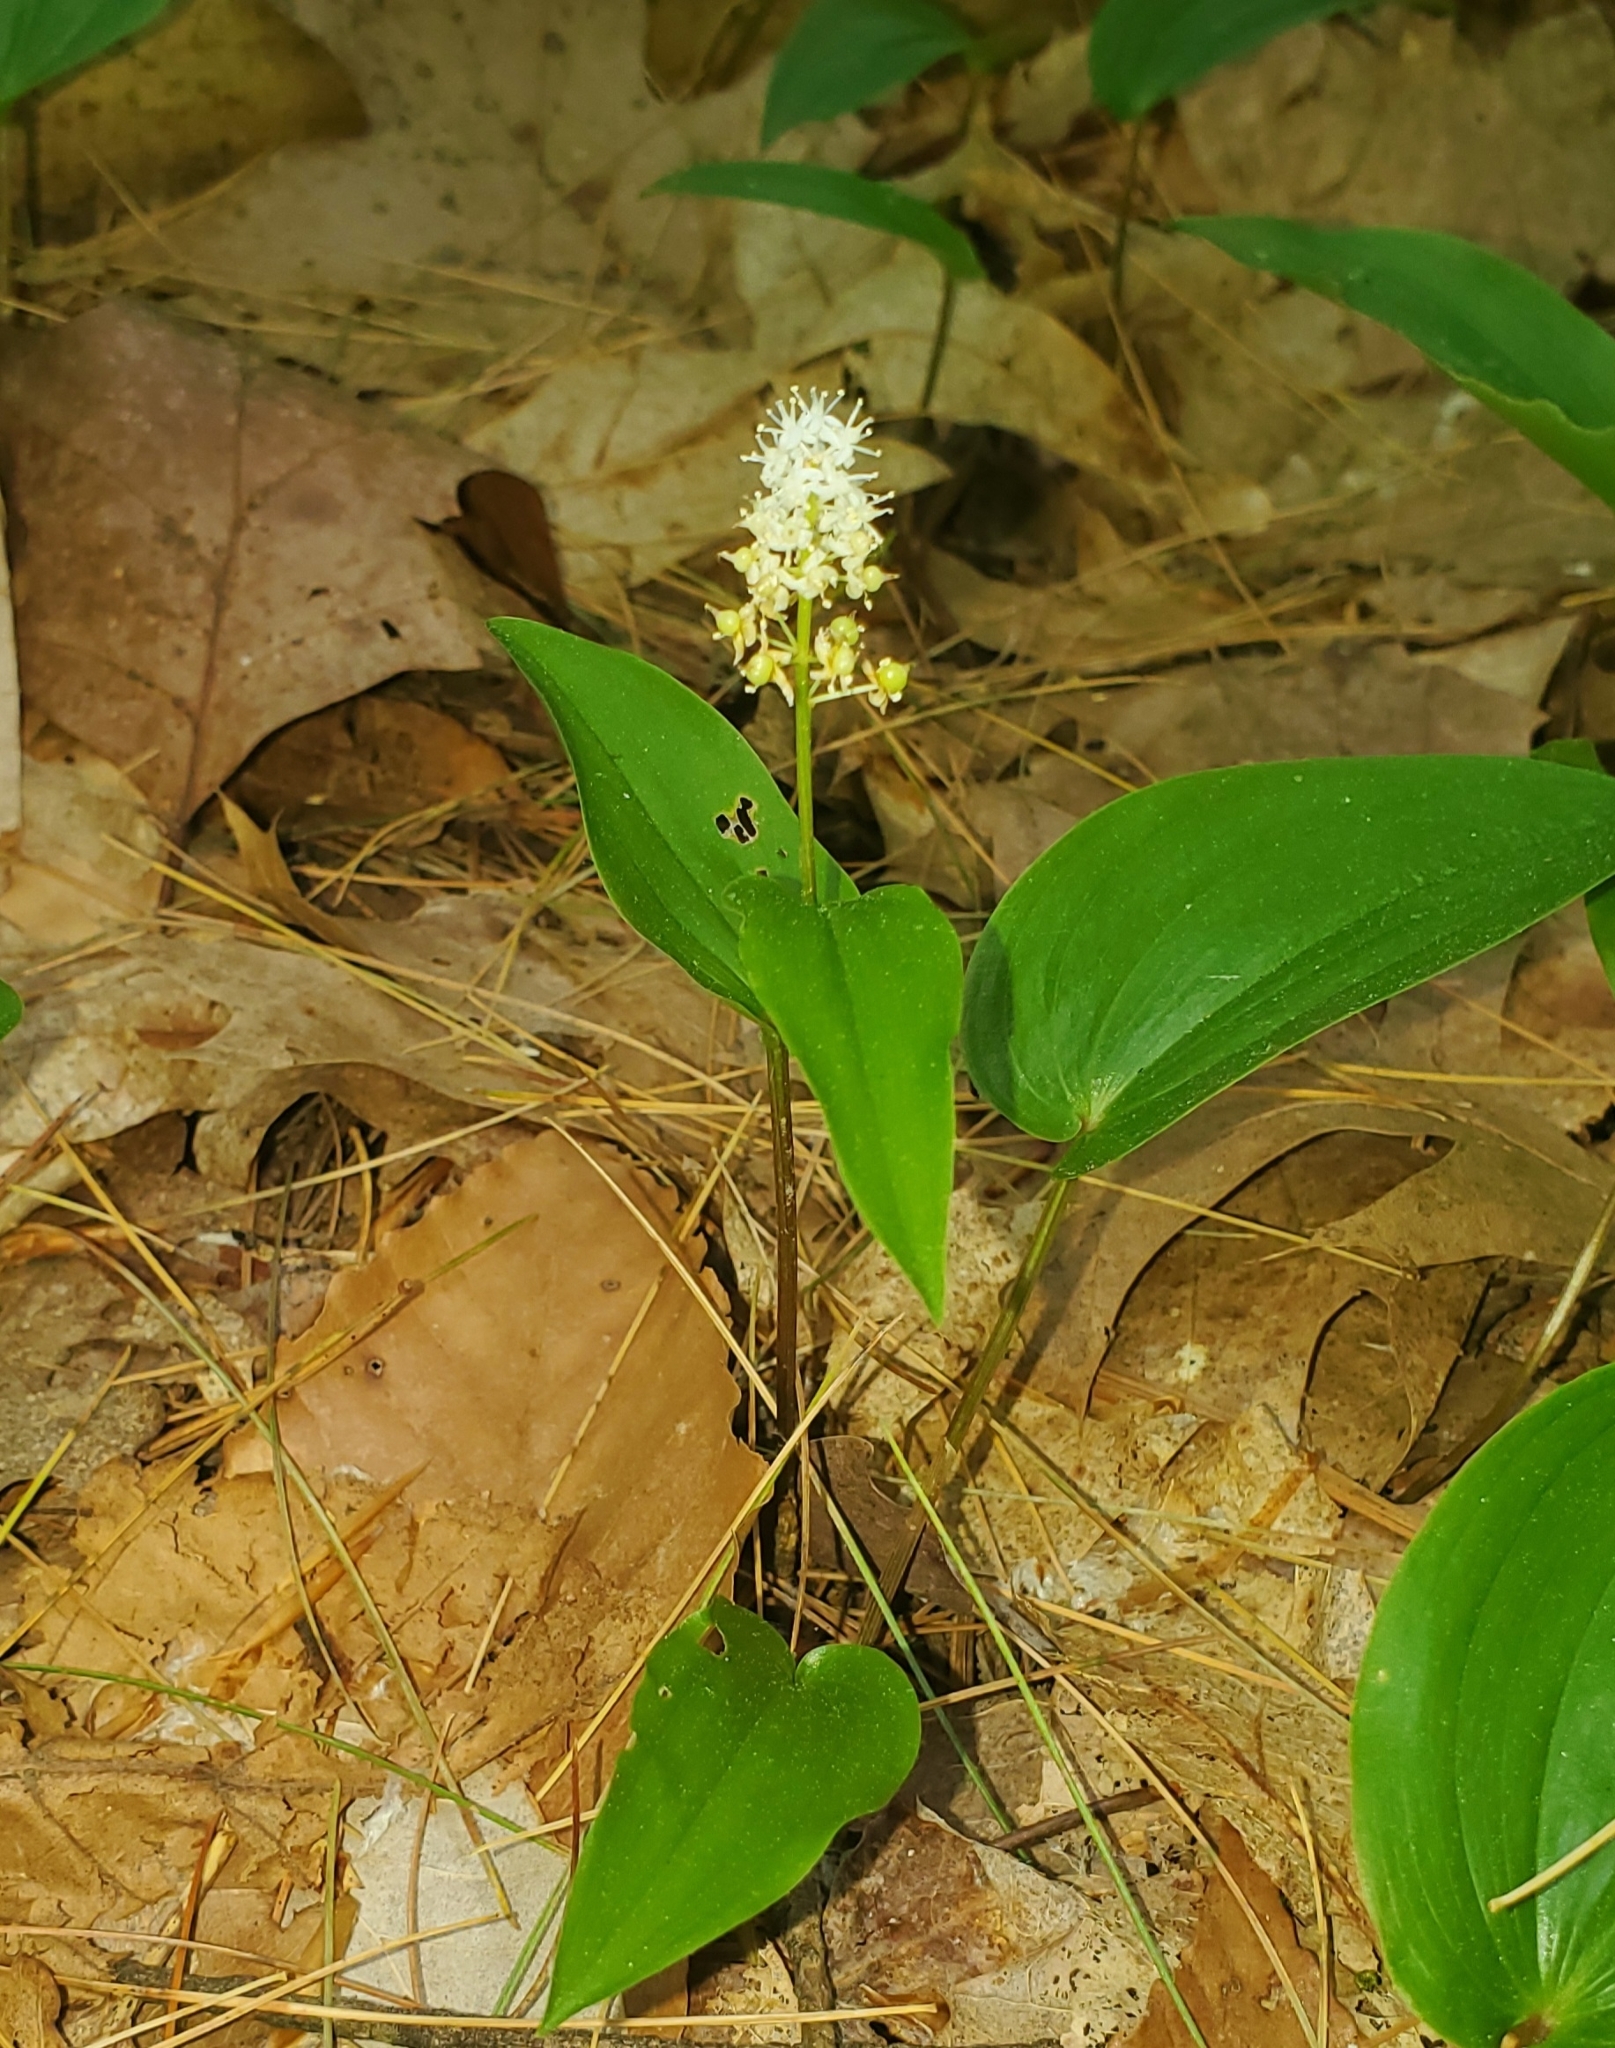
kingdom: Plantae
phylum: Tracheophyta
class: Liliopsida
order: Asparagales
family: Asparagaceae
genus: Maianthemum
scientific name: Maianthemum canadense
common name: False lily-of-the-valley
